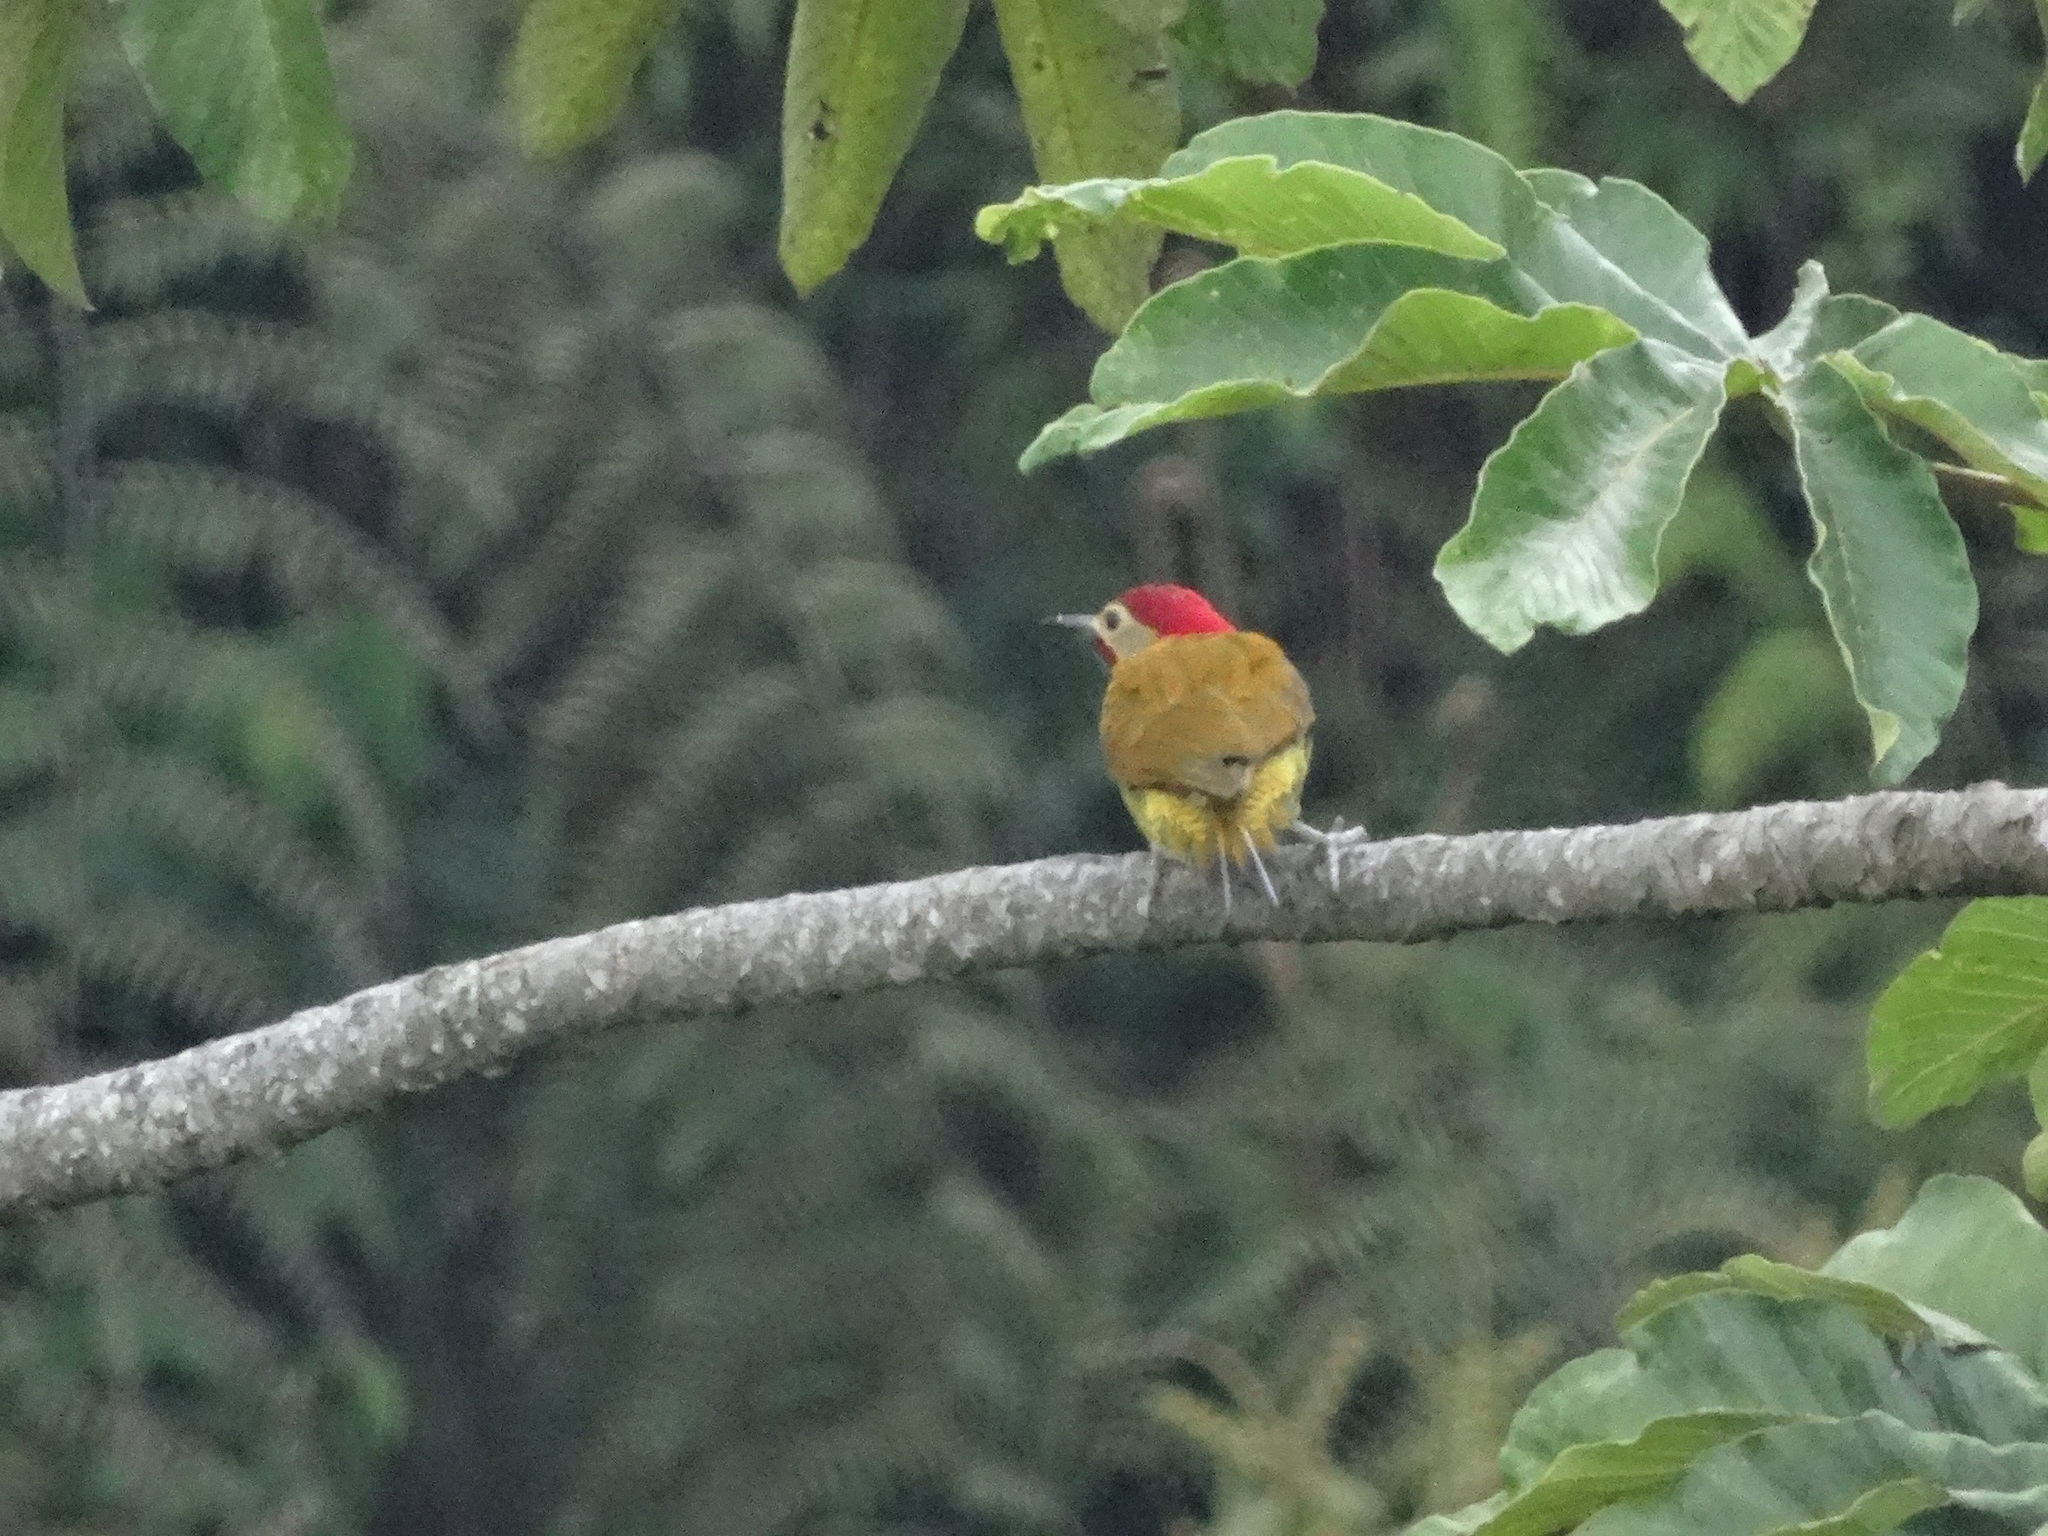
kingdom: Animalia
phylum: Chordata
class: Aves
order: Piciformes
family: Picidae
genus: Colaptes
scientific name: Colaptes rubiginosus
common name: Golden-olive woodpecker
